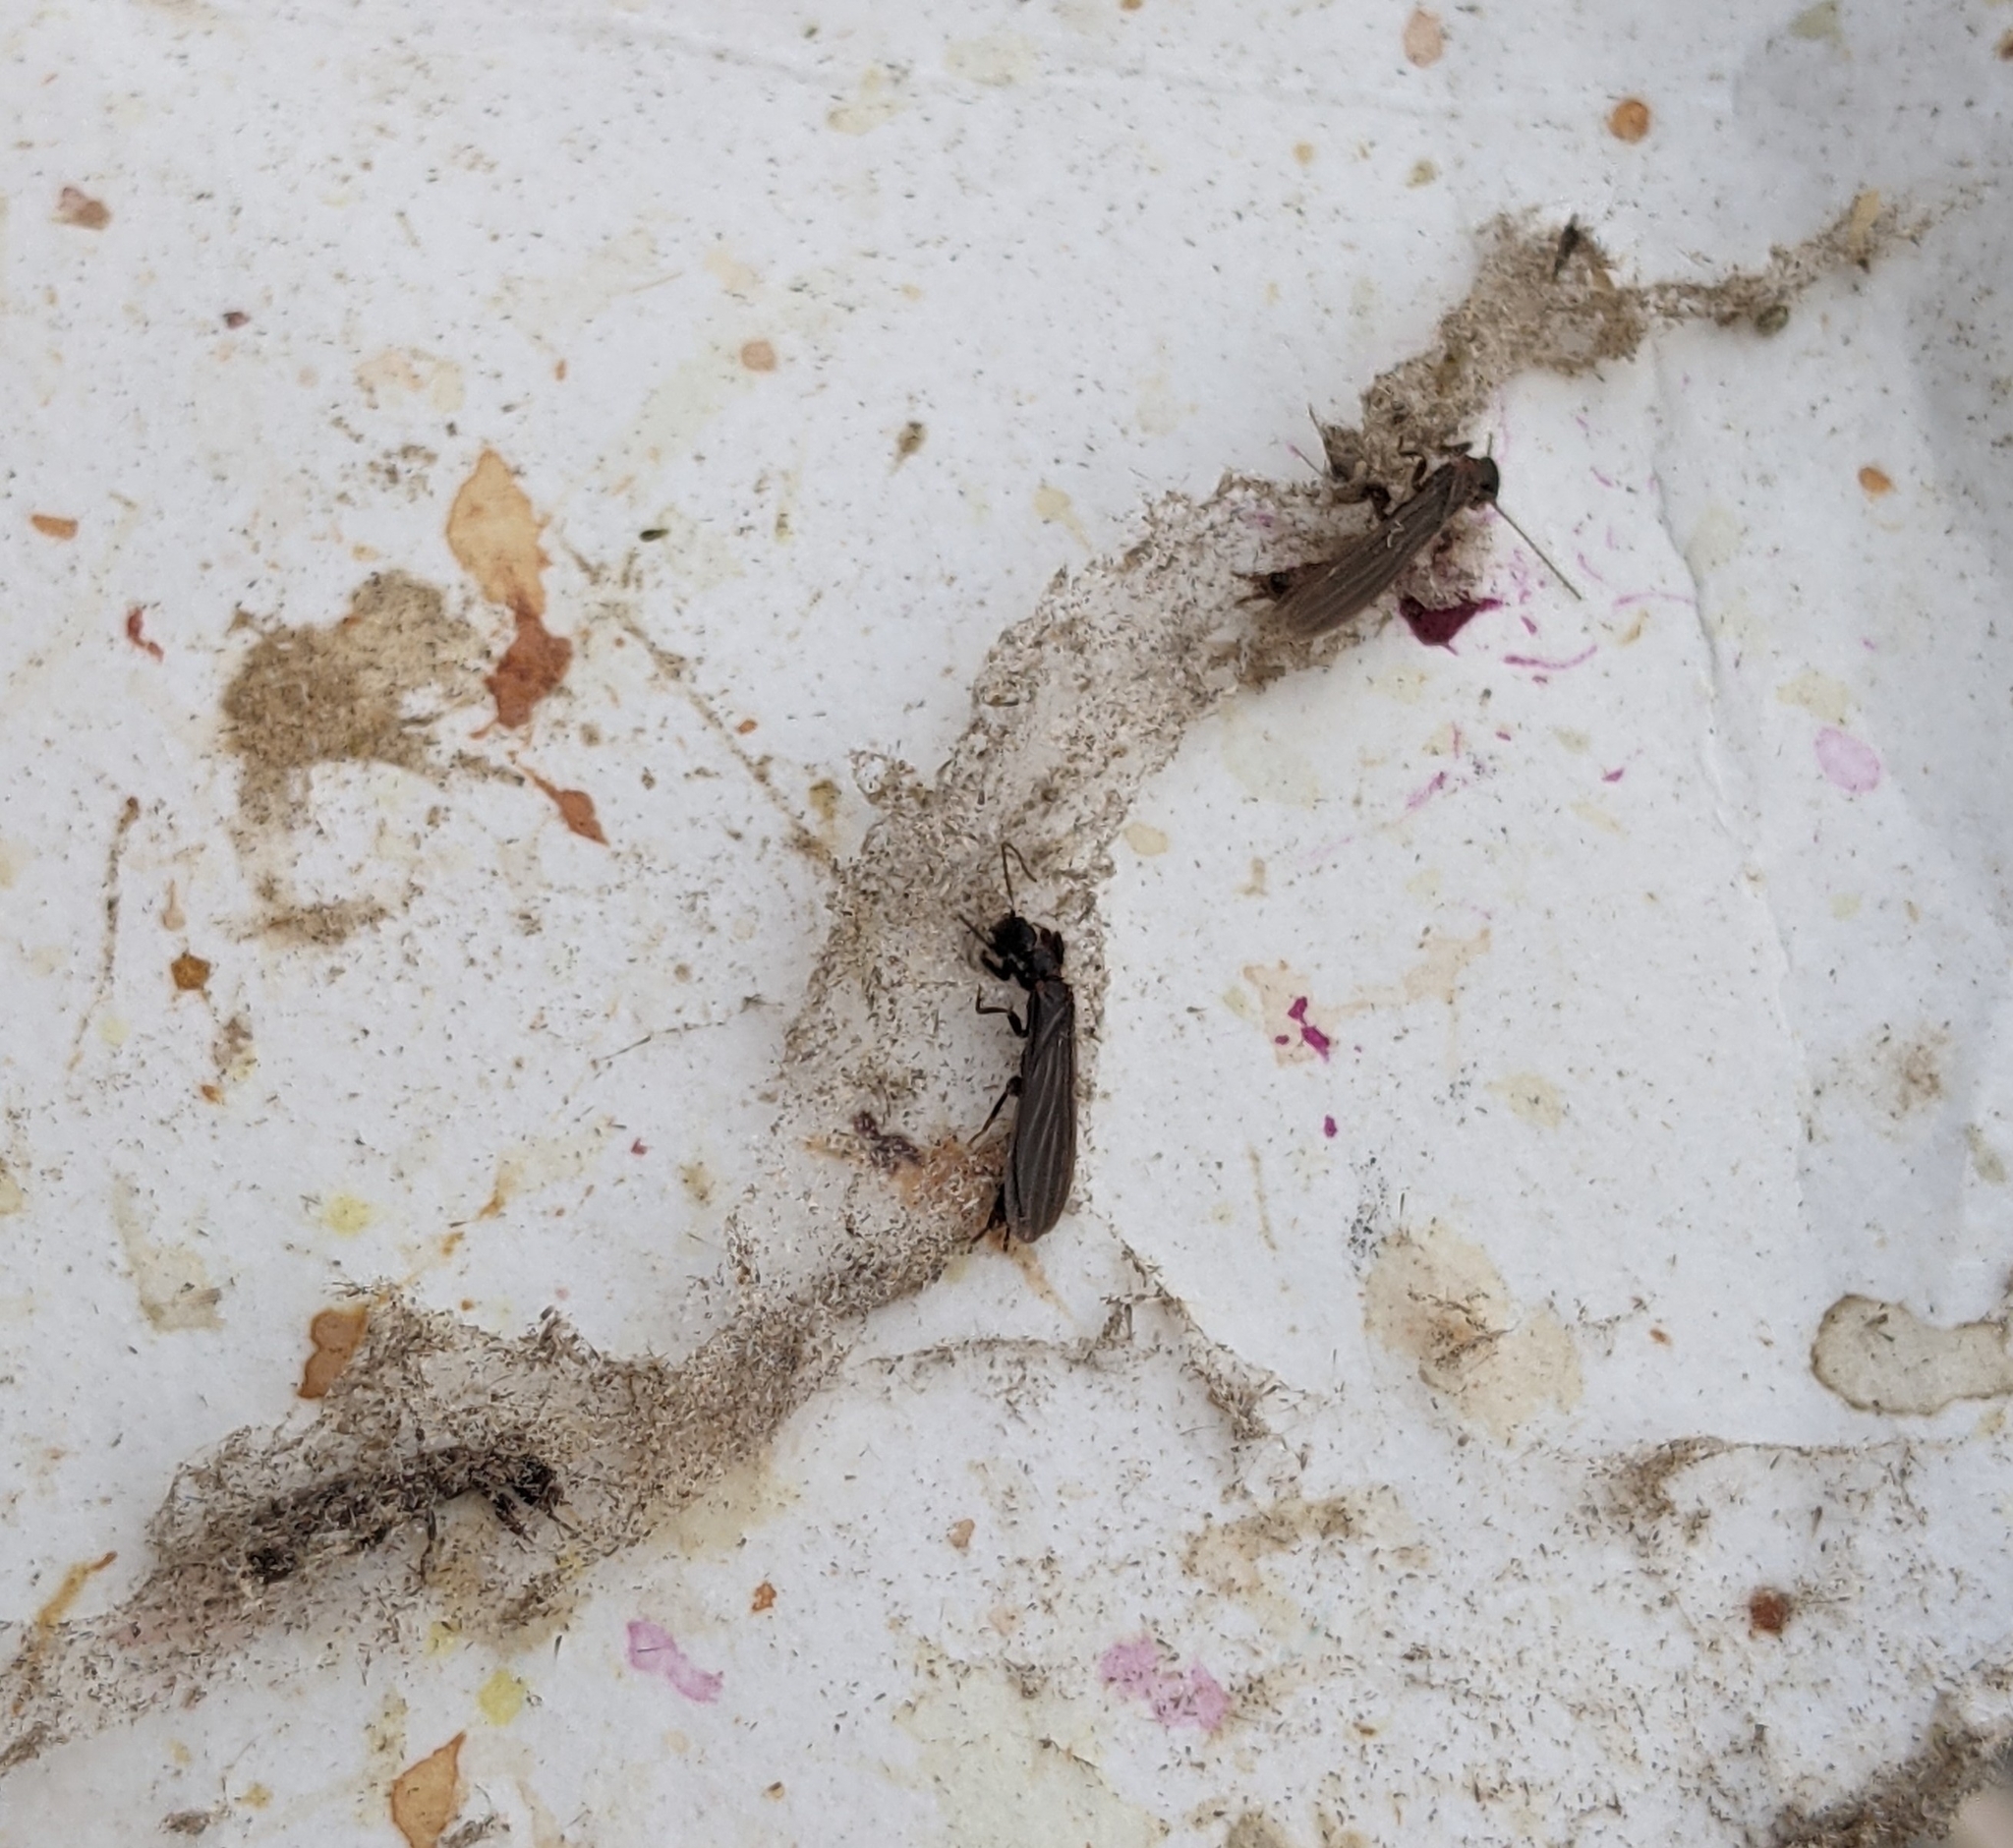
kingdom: Animalia
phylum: Arthropoda
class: Insecta
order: Embioptera
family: Oligotomidae
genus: Oligotoma
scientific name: Oligotoma nigra
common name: Black webspinner
